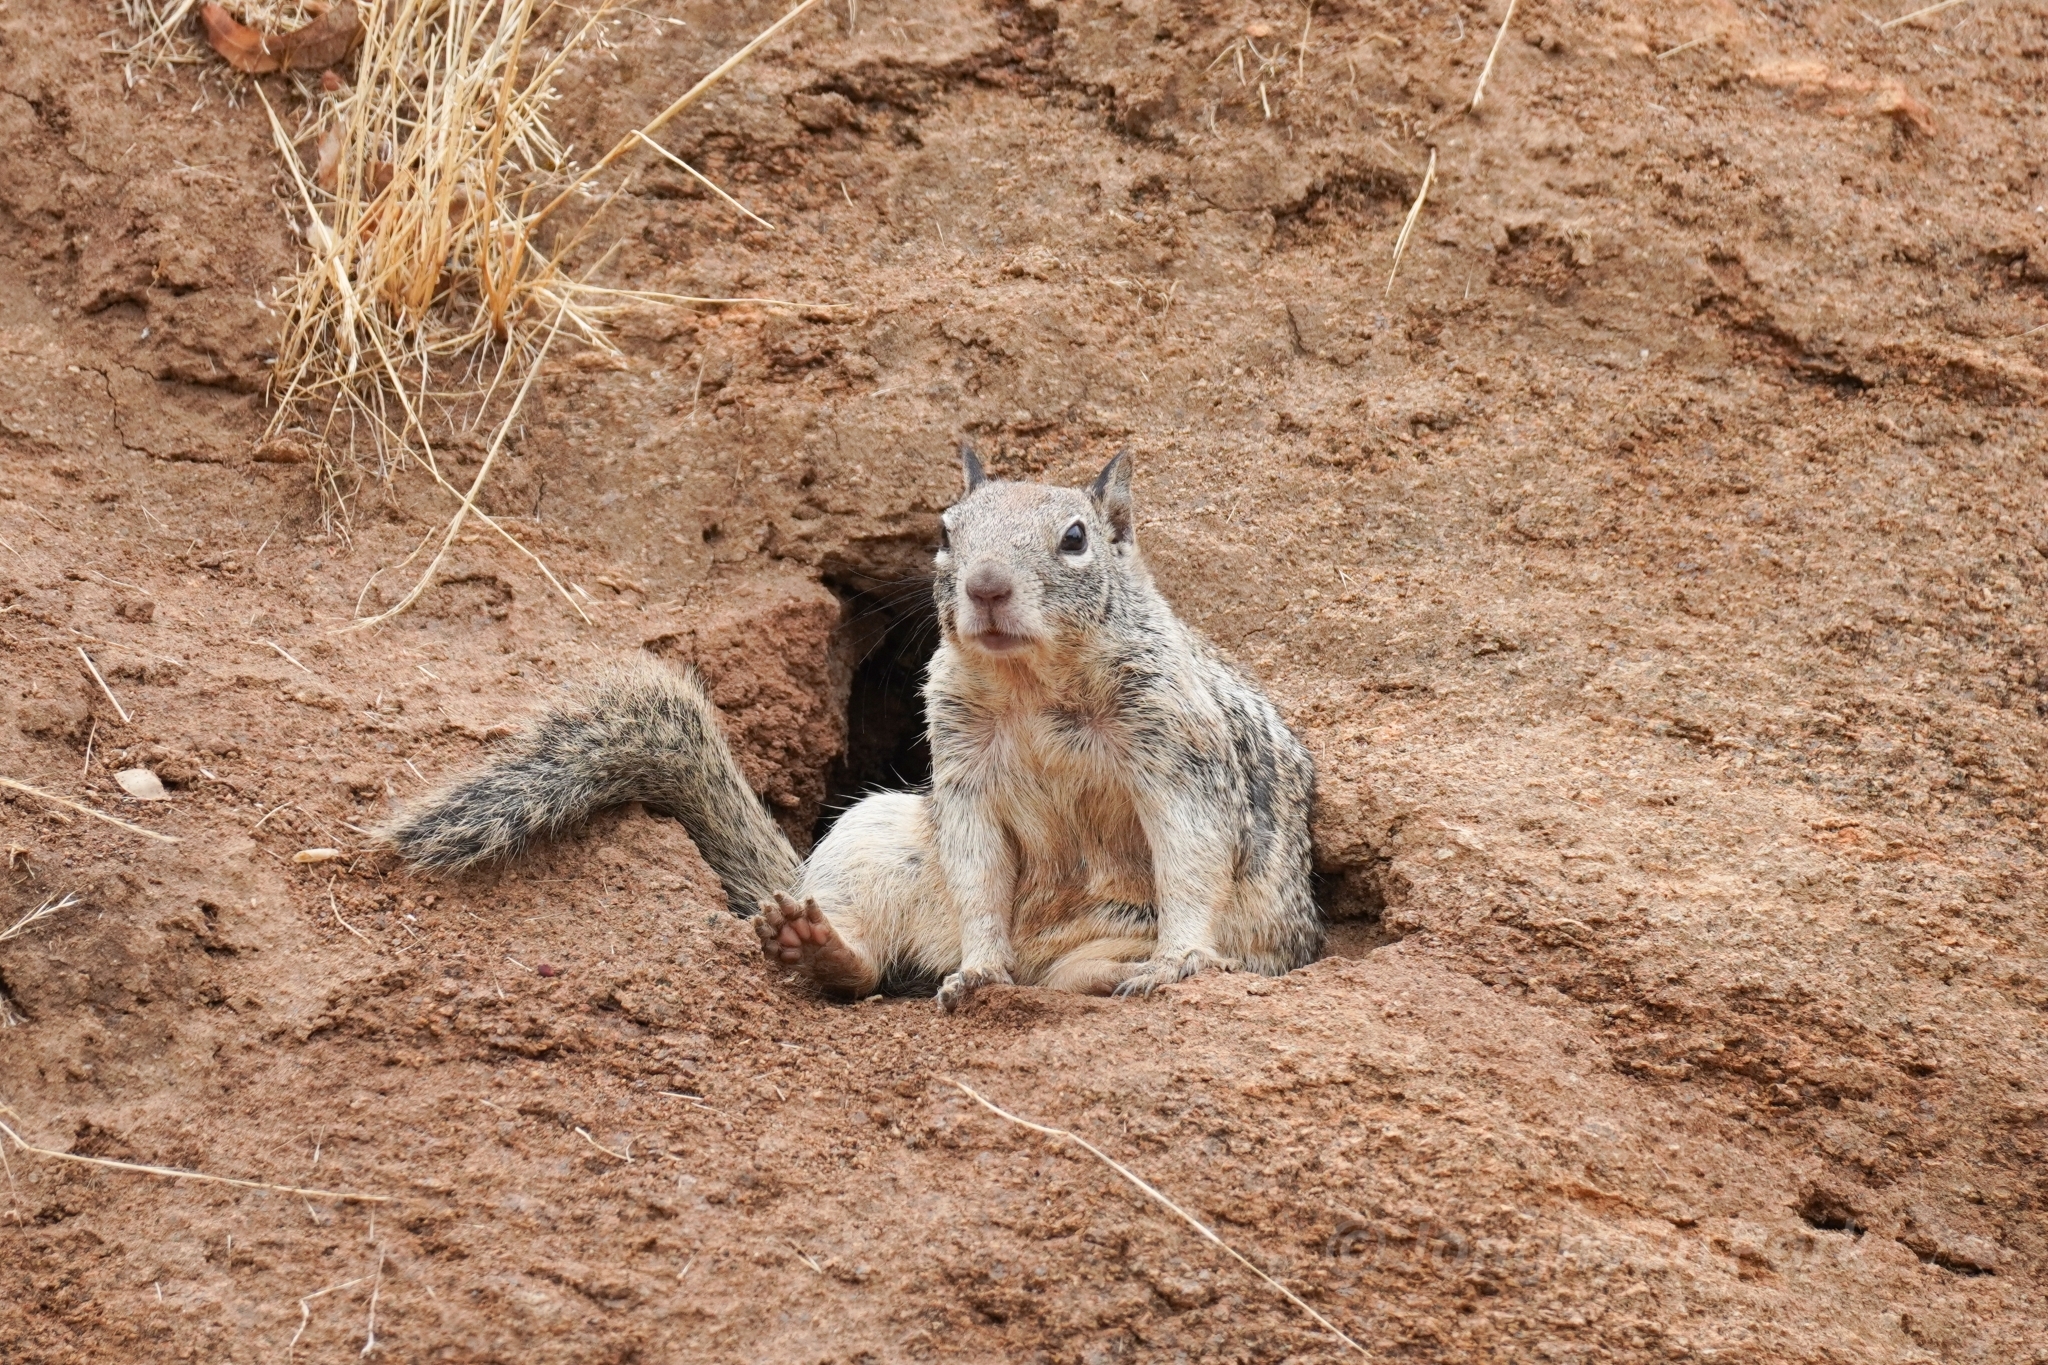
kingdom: Animalia
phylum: Chordata
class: Mammalia
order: Rodentia
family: Sciuridae
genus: Otospermophilus
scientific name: Otospermophilus beecheyi
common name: California ground squirrel
